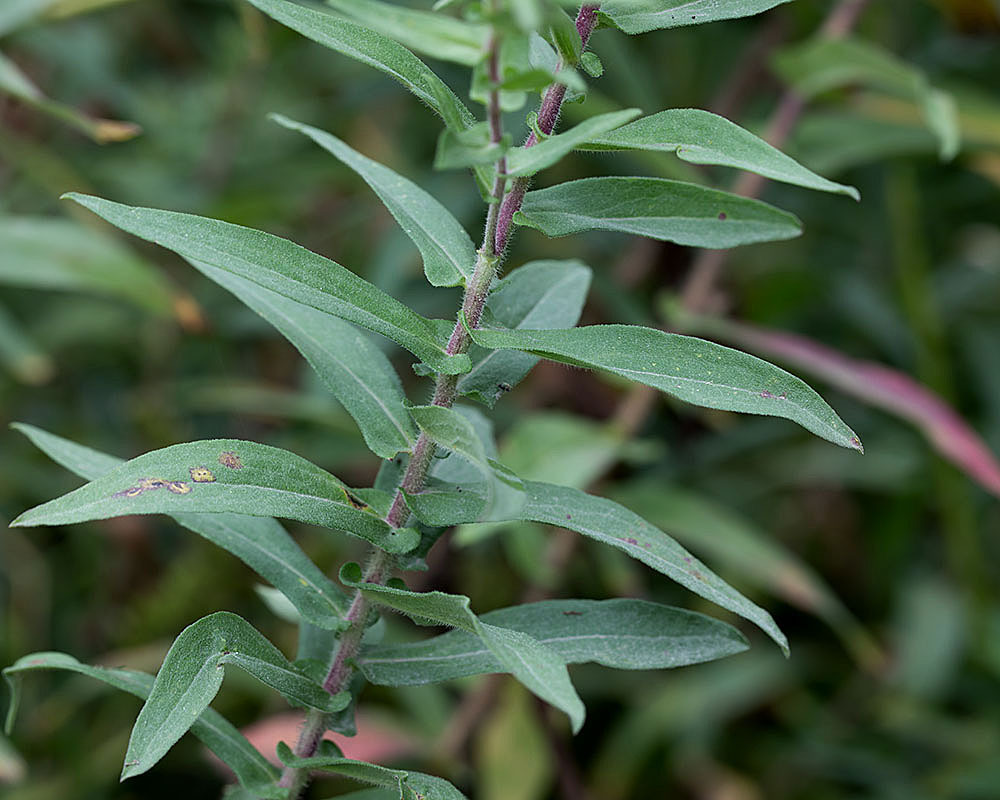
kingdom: Plantae
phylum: Tracheophyta
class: Magnoliopsida
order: Asterales
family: Asteraceae
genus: Symphyotrichum
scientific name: Symphyotrichum novae-angliae
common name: Michaelmas daisy
